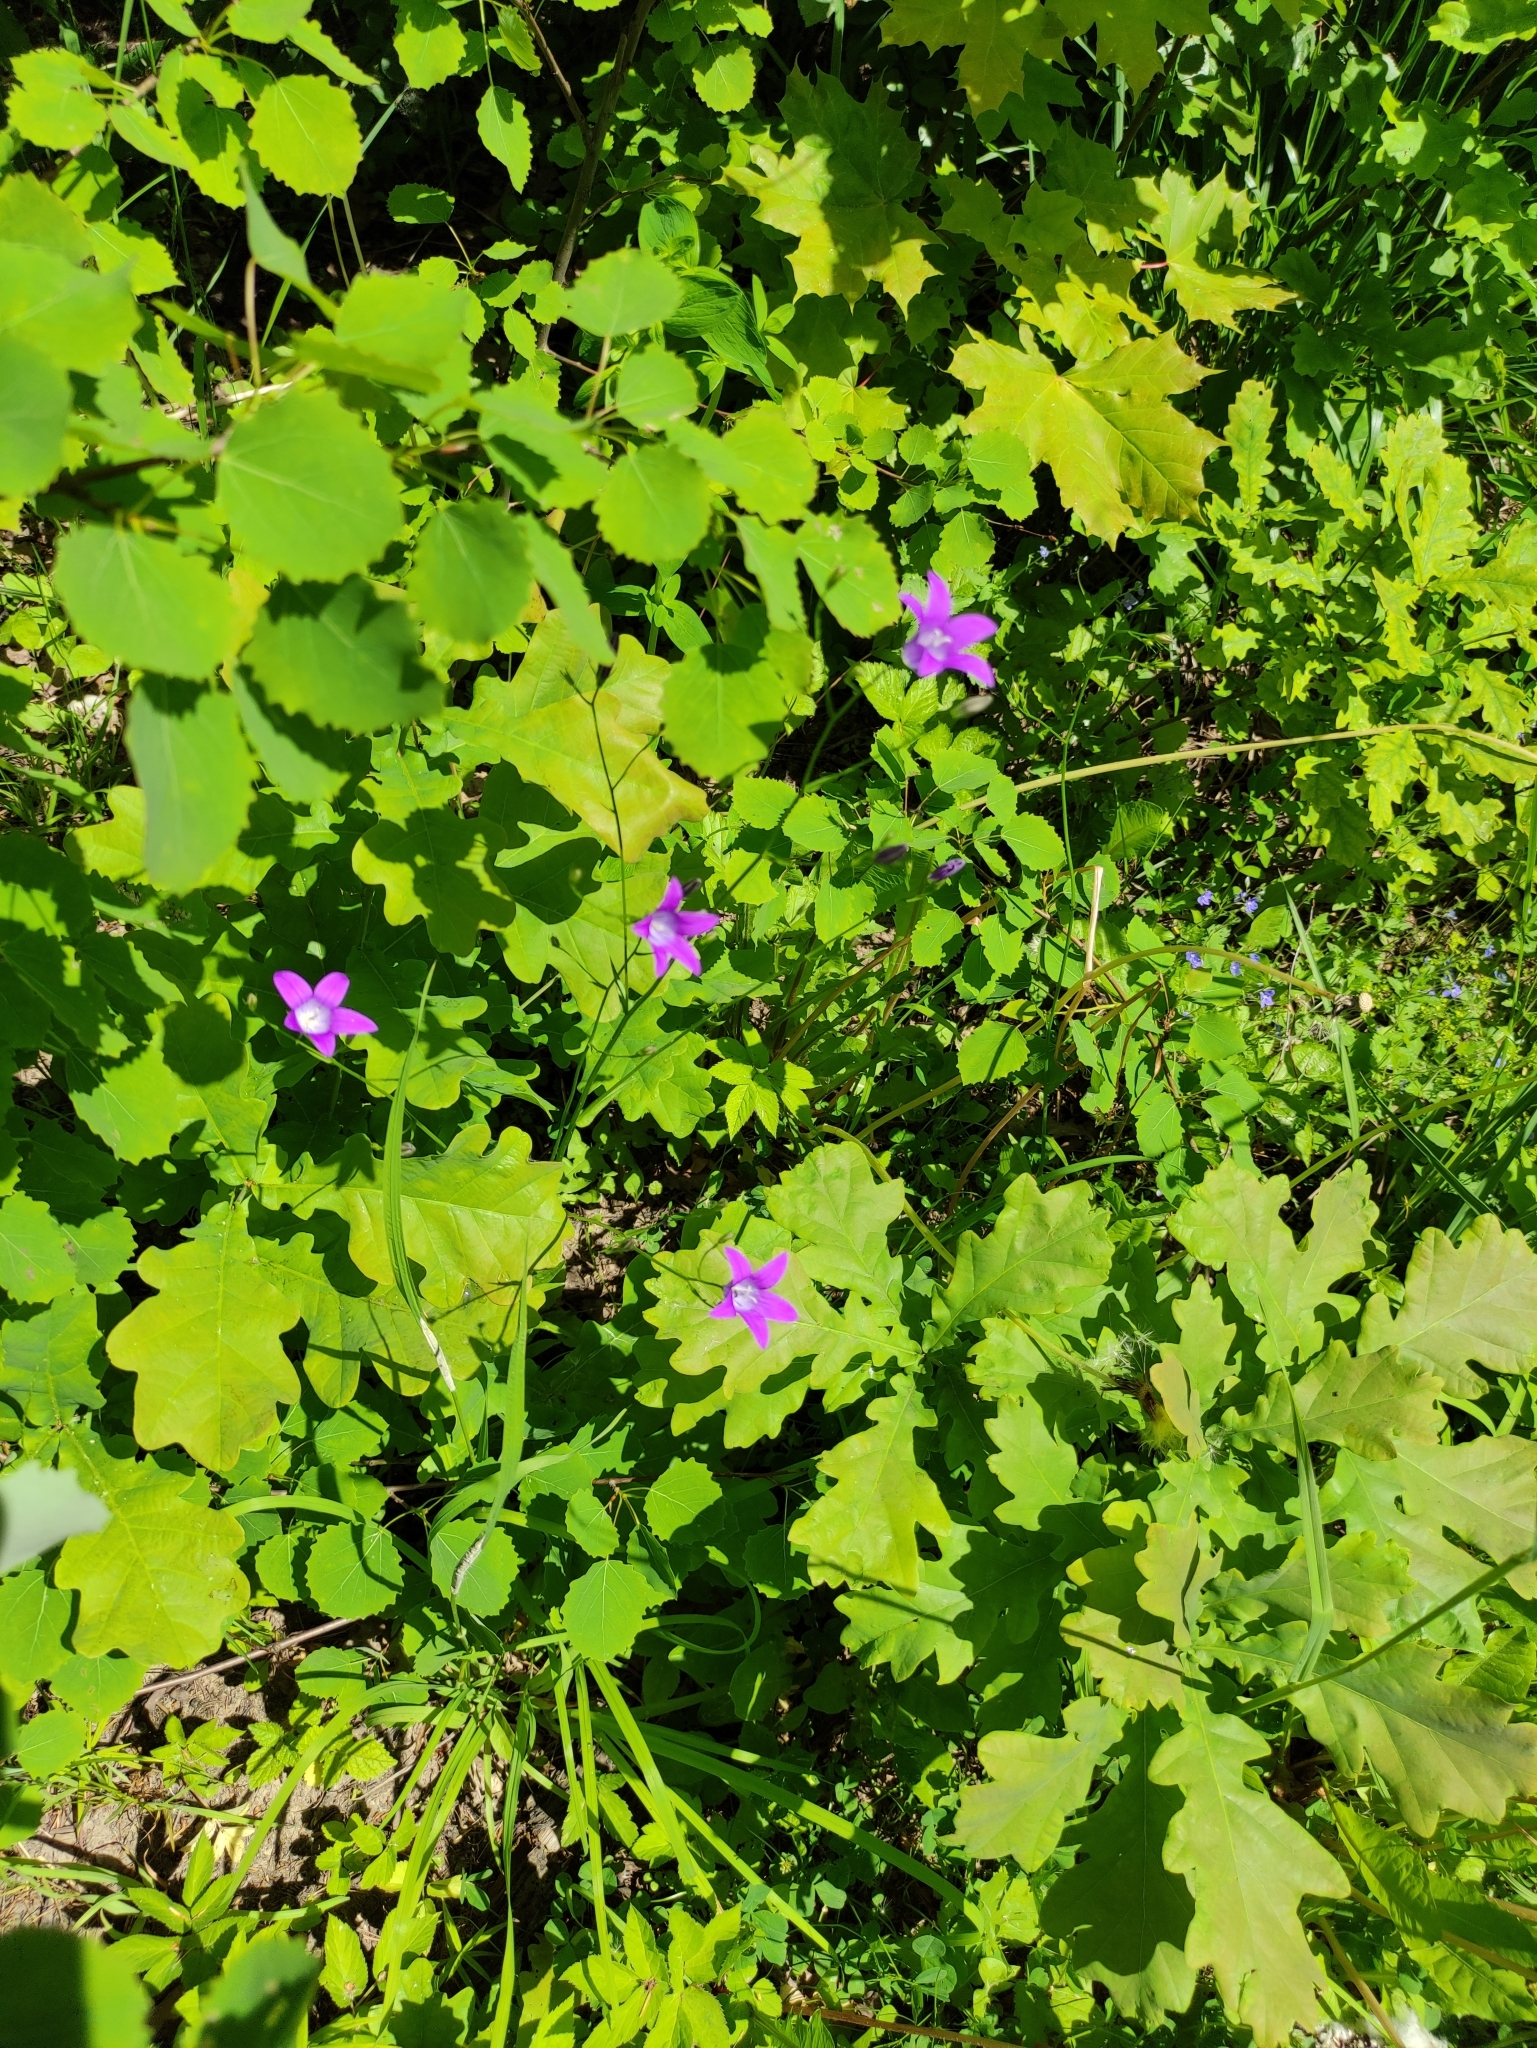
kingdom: Plantae
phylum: Tracheophyta
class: Magnoliopsida
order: Asterales
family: Campanulaceae
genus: Campanula
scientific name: Campanula patula
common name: Spreading bellflower
